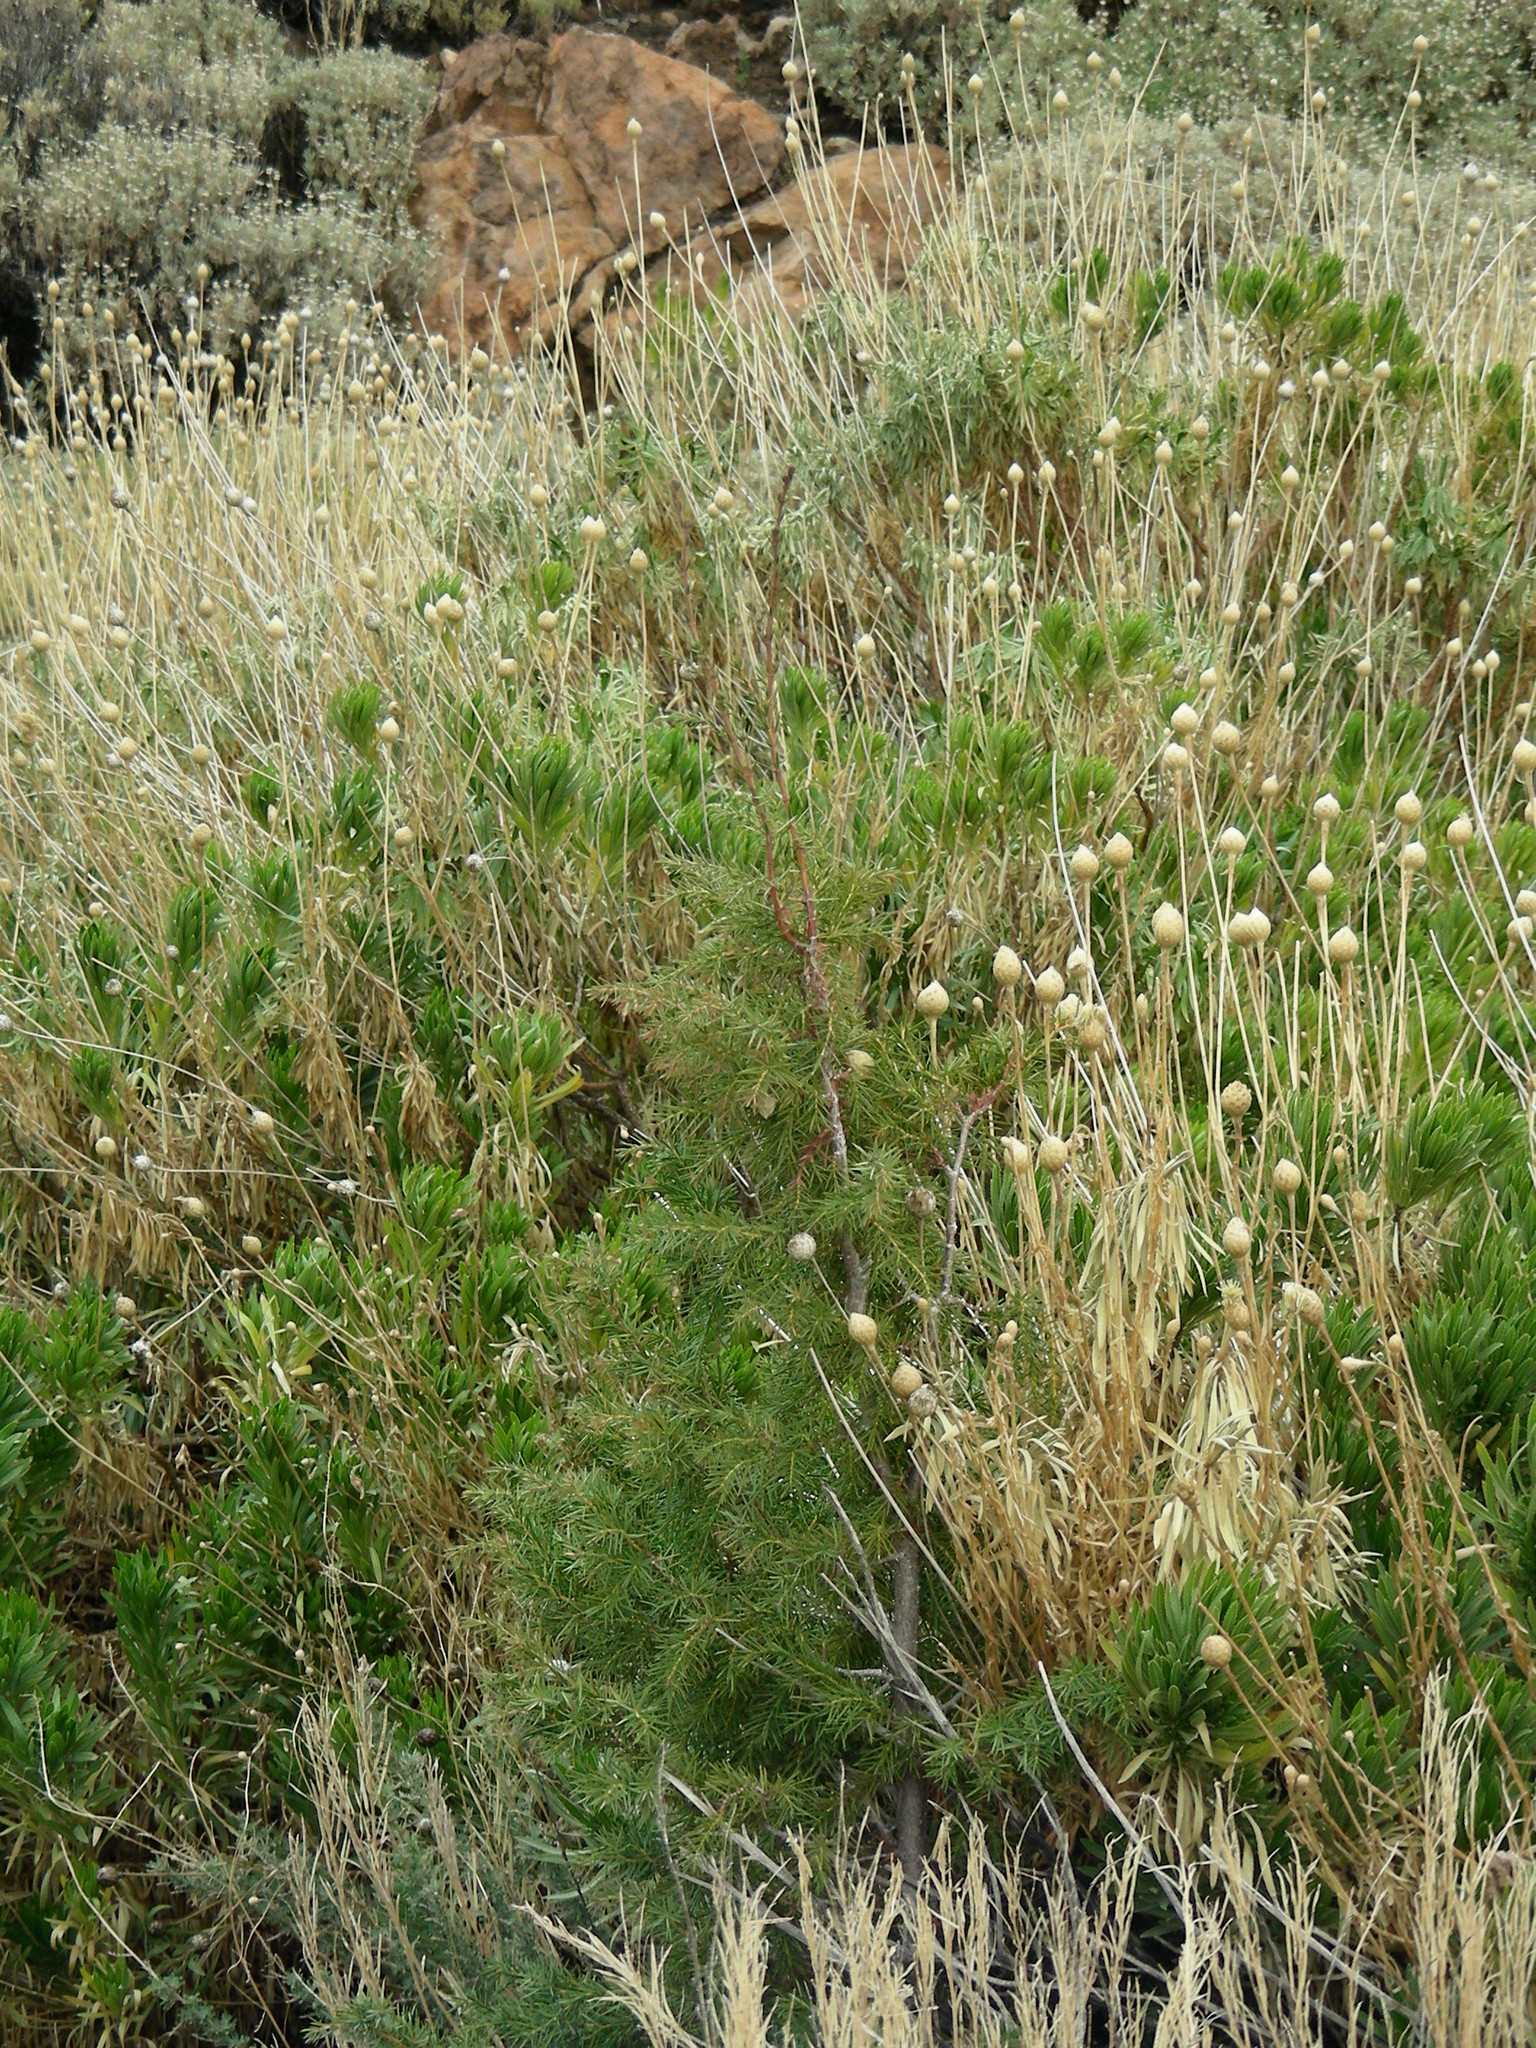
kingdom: Plantae
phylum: Tracheophyta
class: Pinopsida
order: Pinales
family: Cupressaceae
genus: Juniperus
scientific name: Juniperus cedrus
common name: Canary islands juniper
